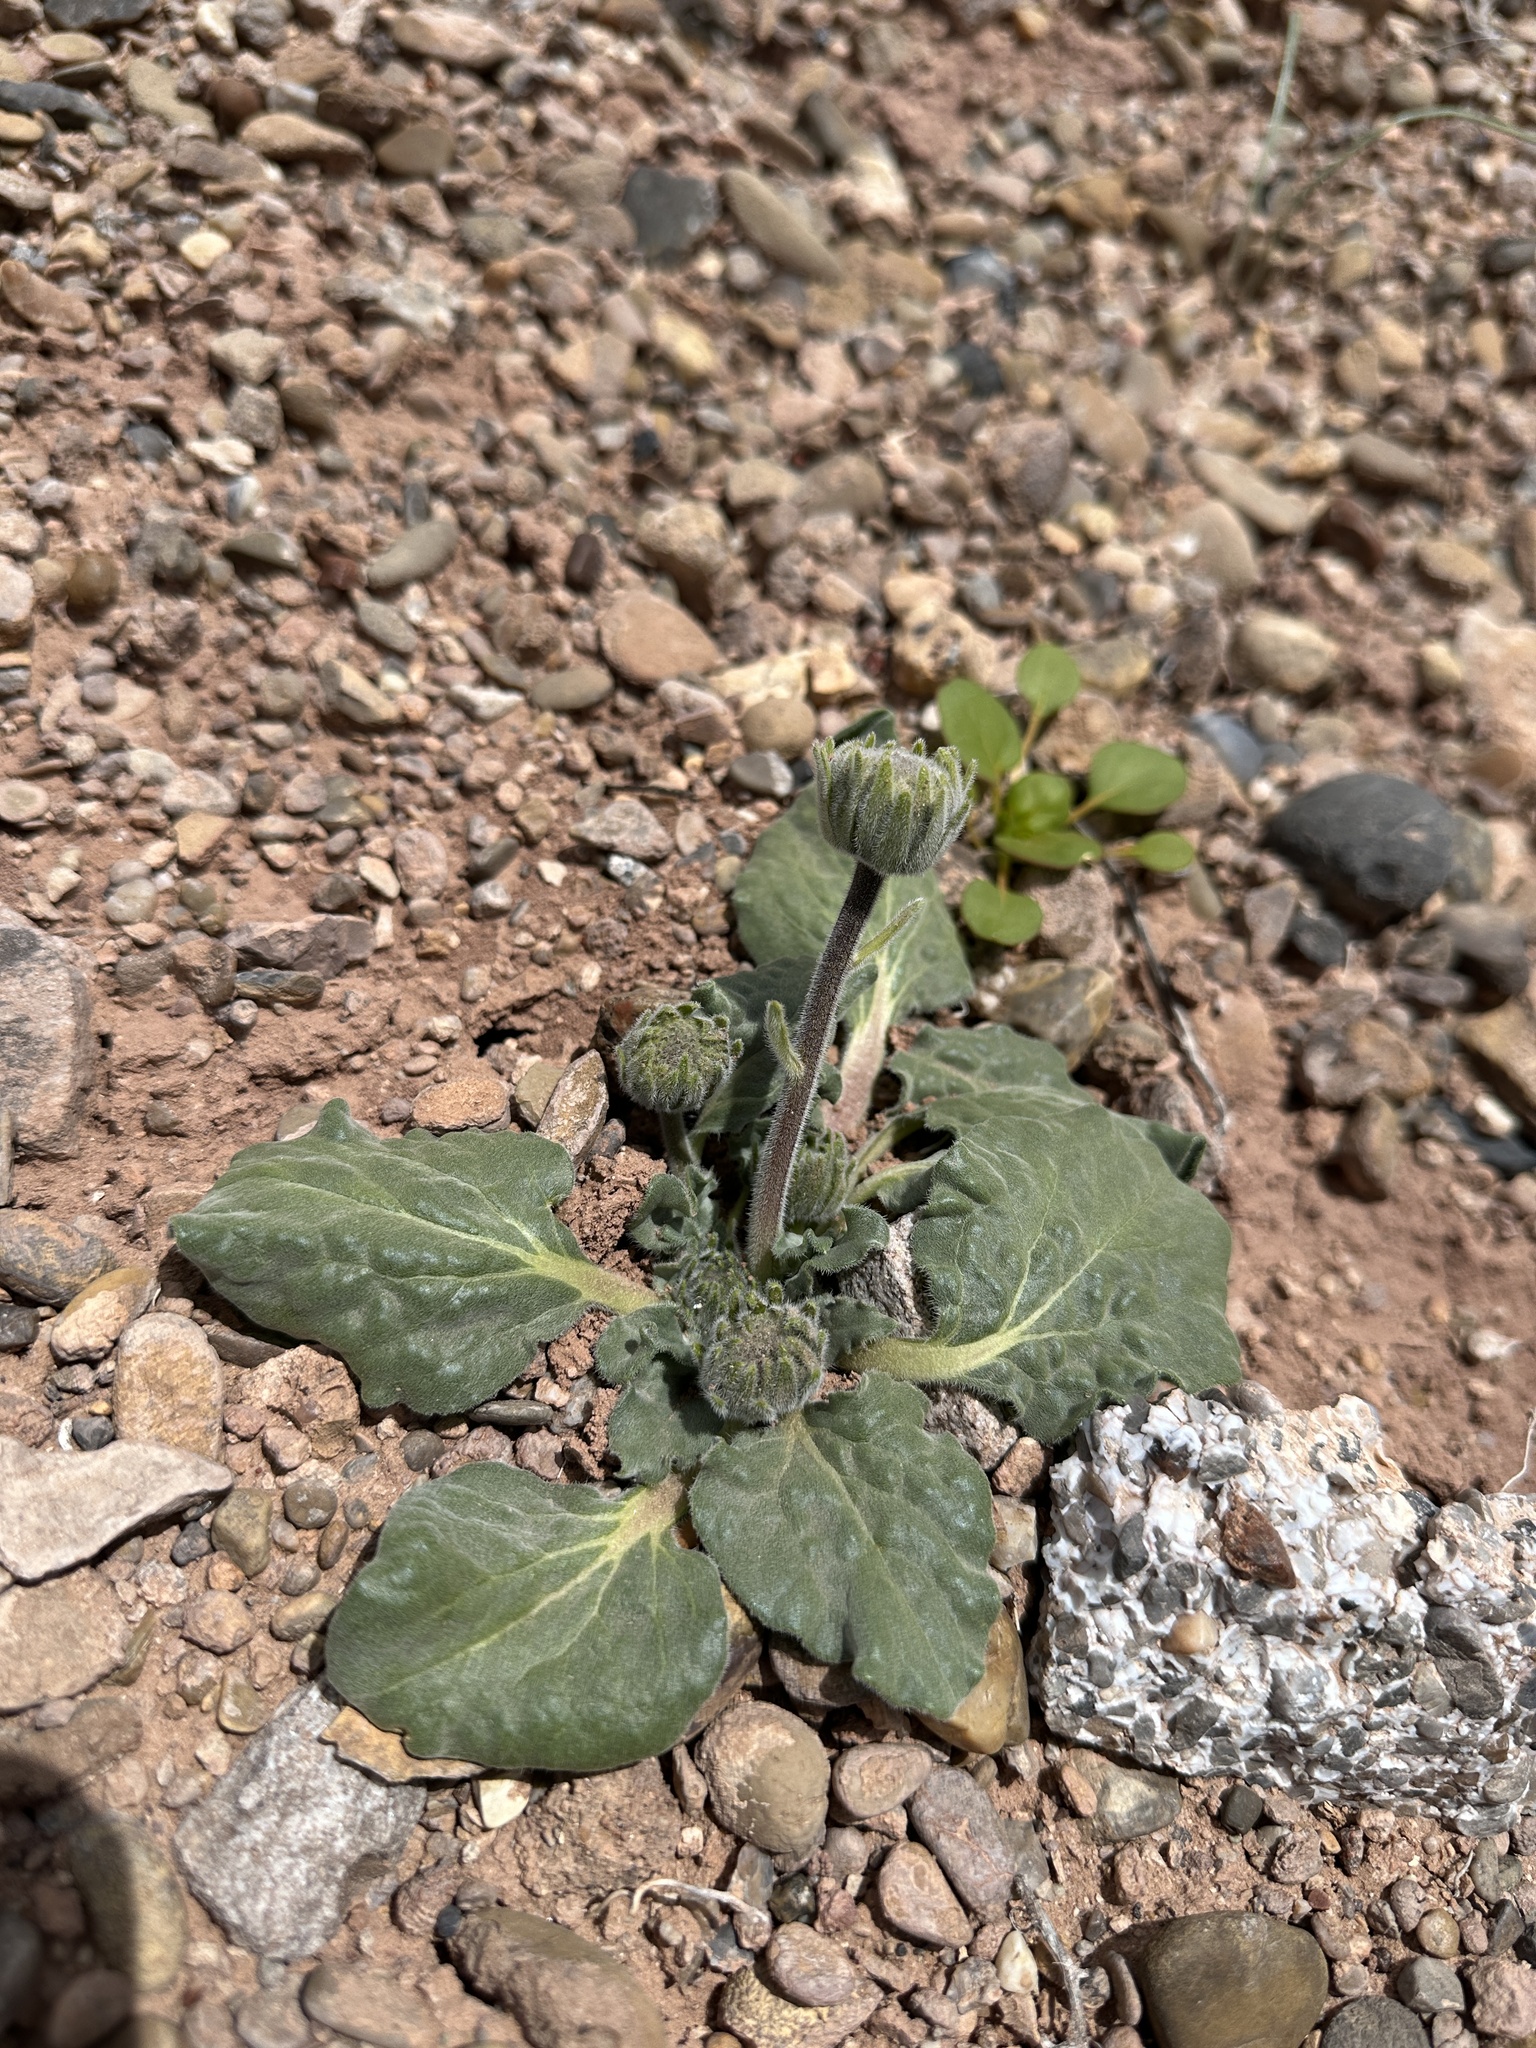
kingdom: Plantae
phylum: Tracheophyta
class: Magnoliopsida
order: Asterales
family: Asteraceae
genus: Encelia
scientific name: Encelia nutans
